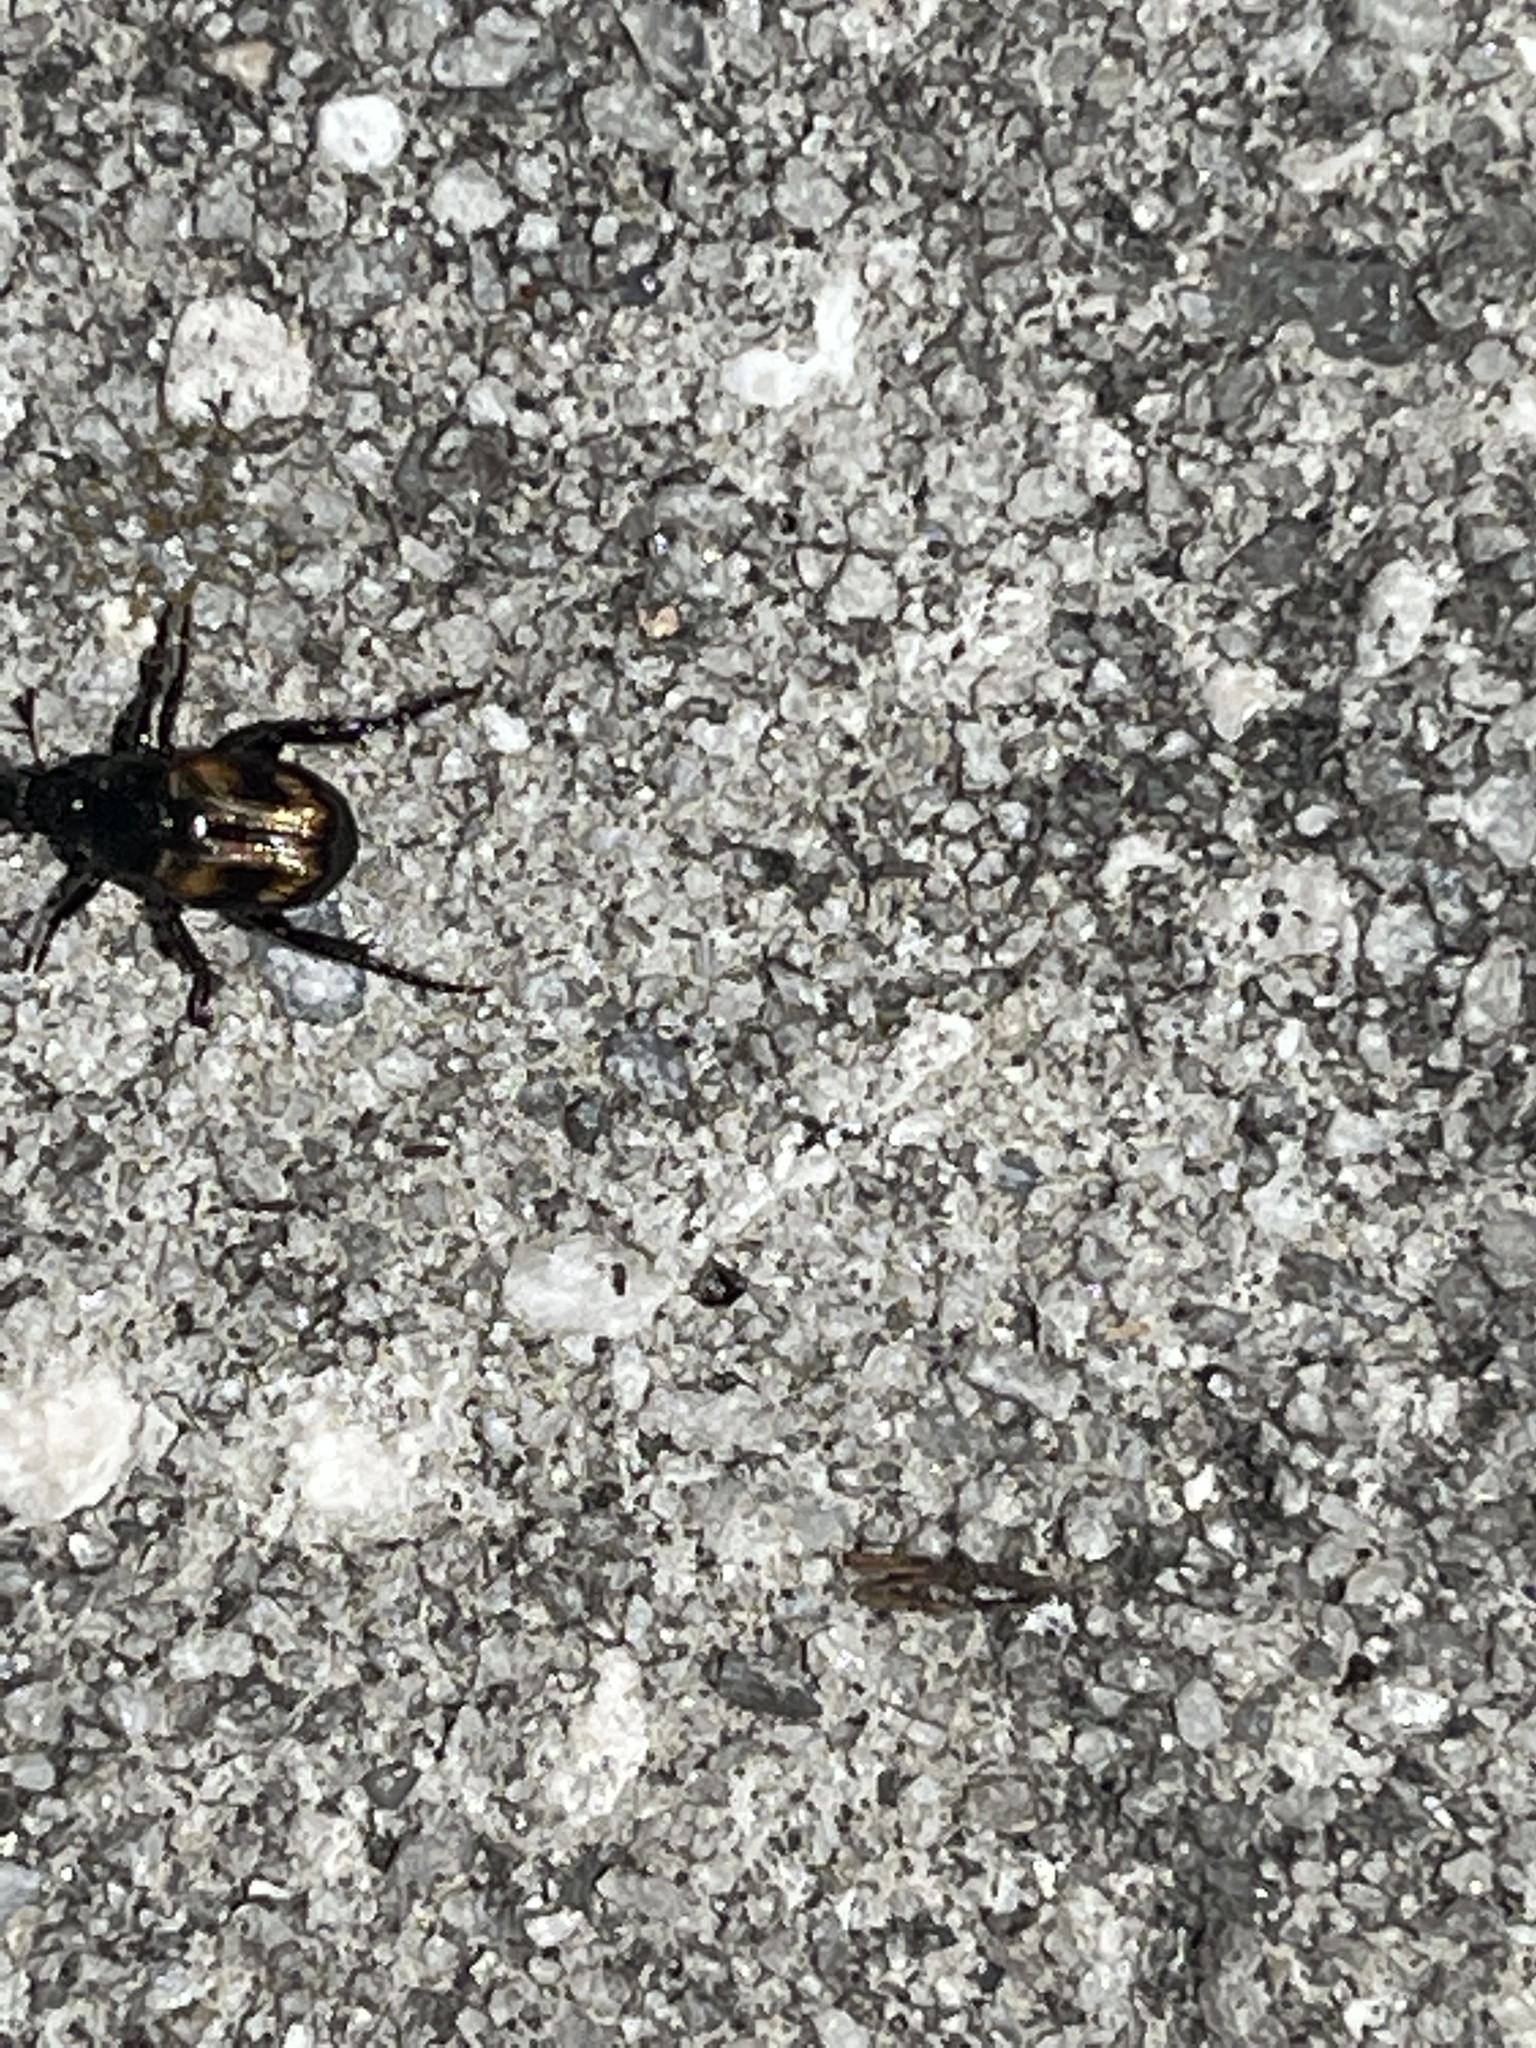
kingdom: Animalia
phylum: Arthropoda
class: Insecta
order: Coleoptera
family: Scarabaeidae
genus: Exomala
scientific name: Exomala orientalis
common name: Oriental beetle
